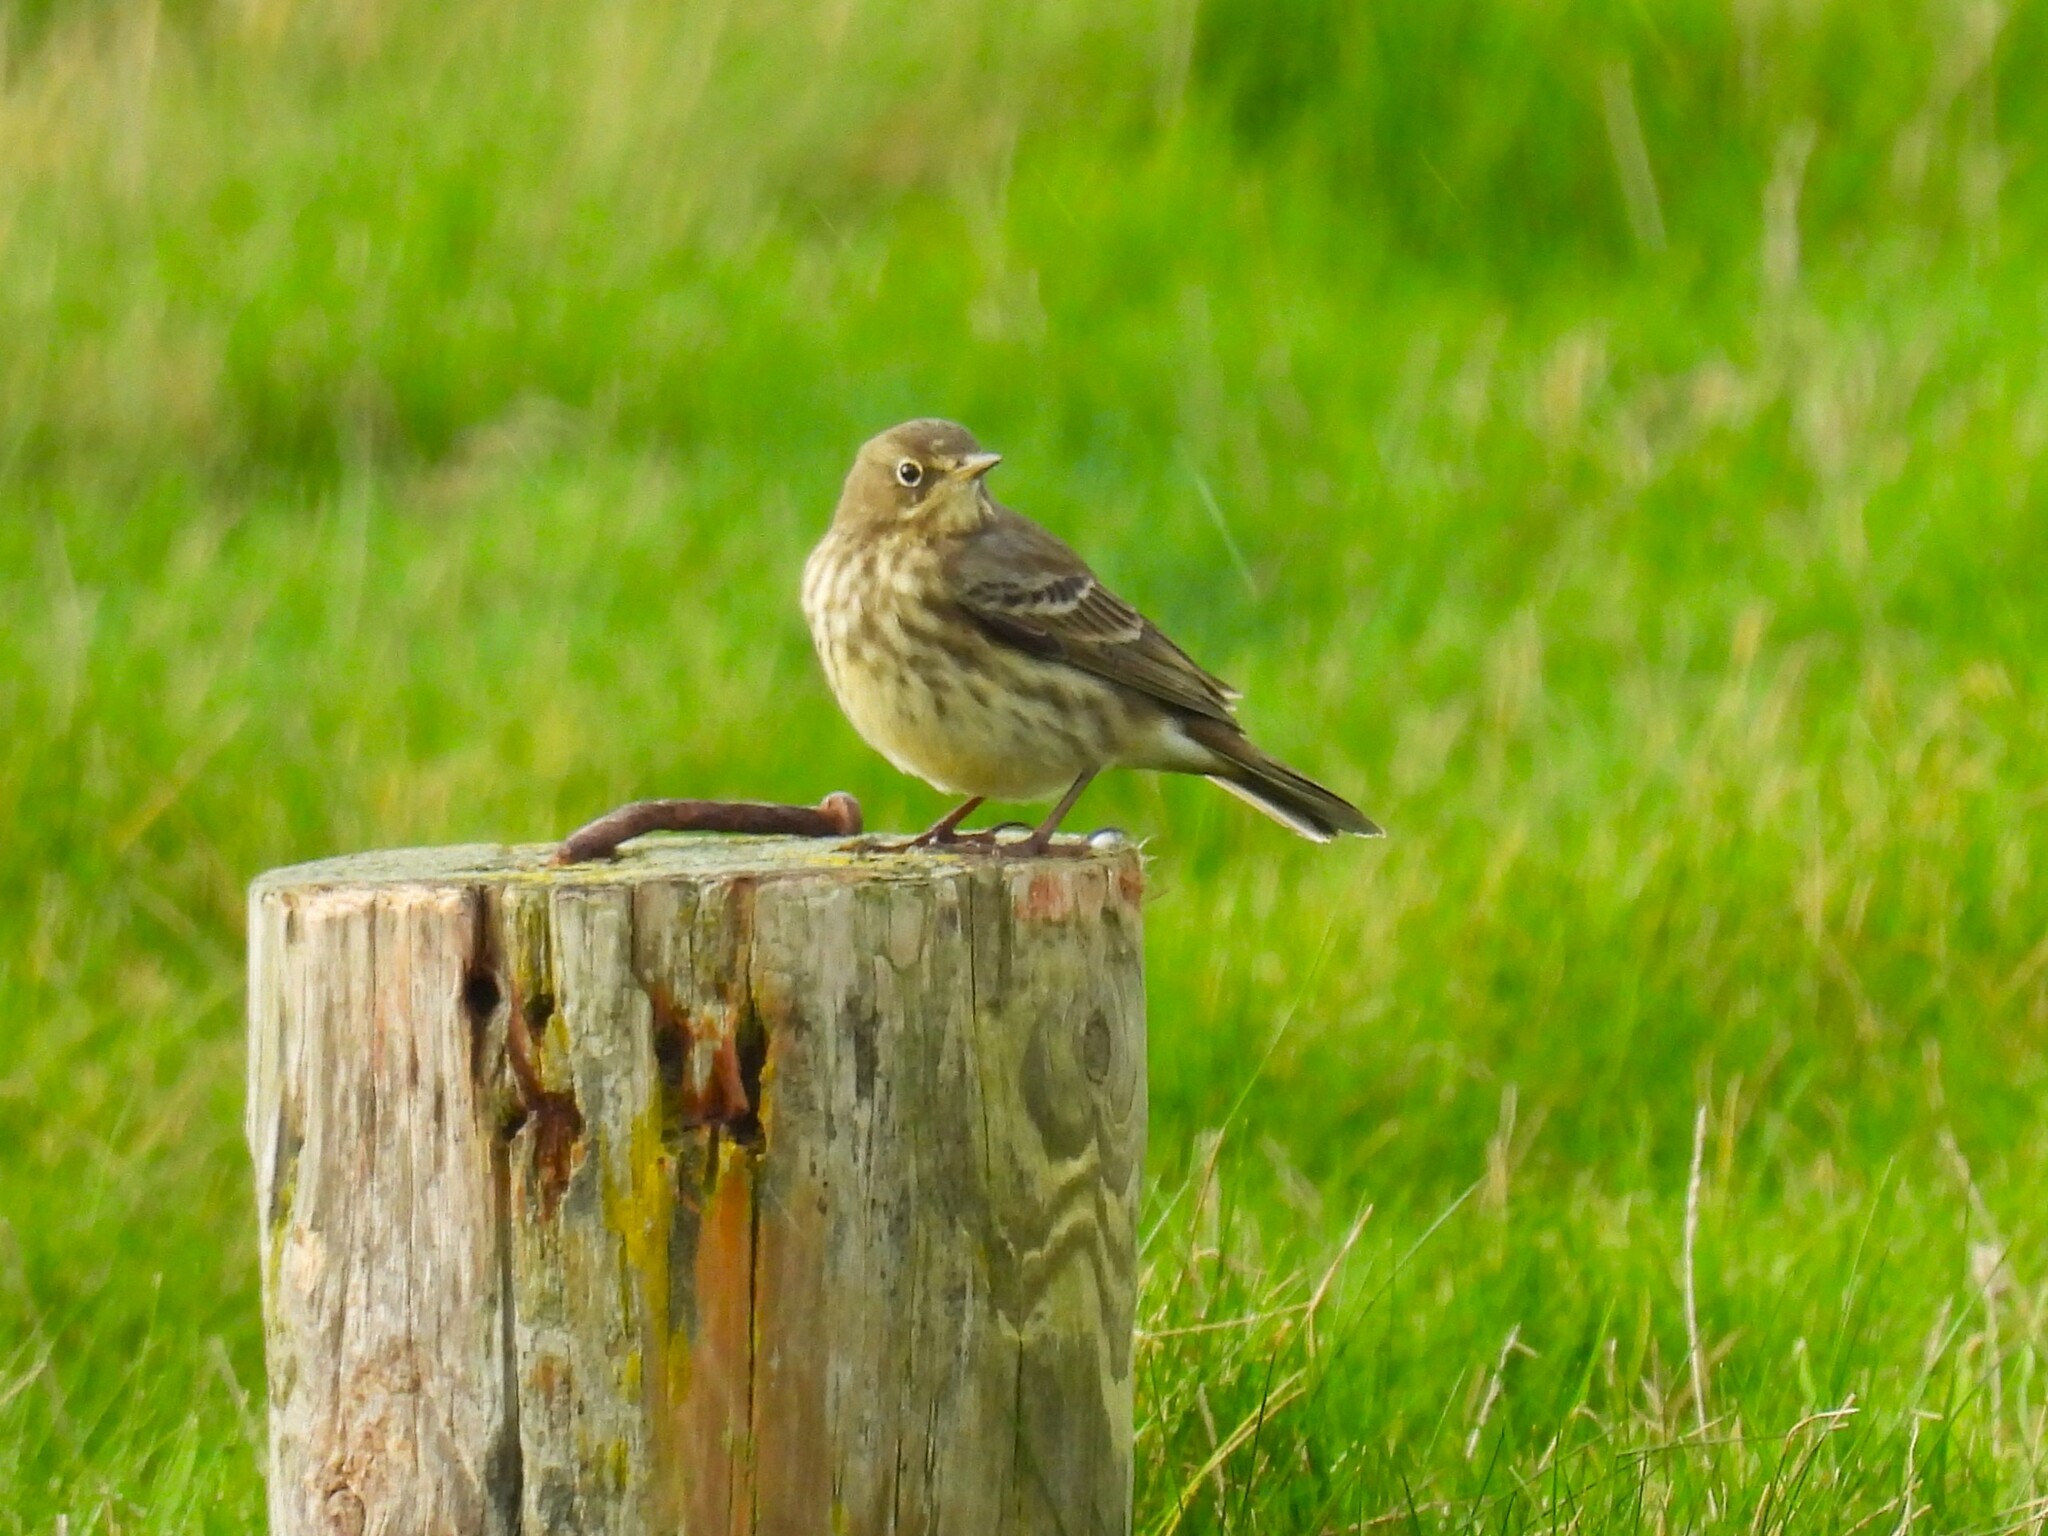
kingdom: Animalia
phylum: Chordata
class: Aves
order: Passeriformes
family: Motacillidae
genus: Anthus
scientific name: Anthus petrosus
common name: Eurasian rock pipit
